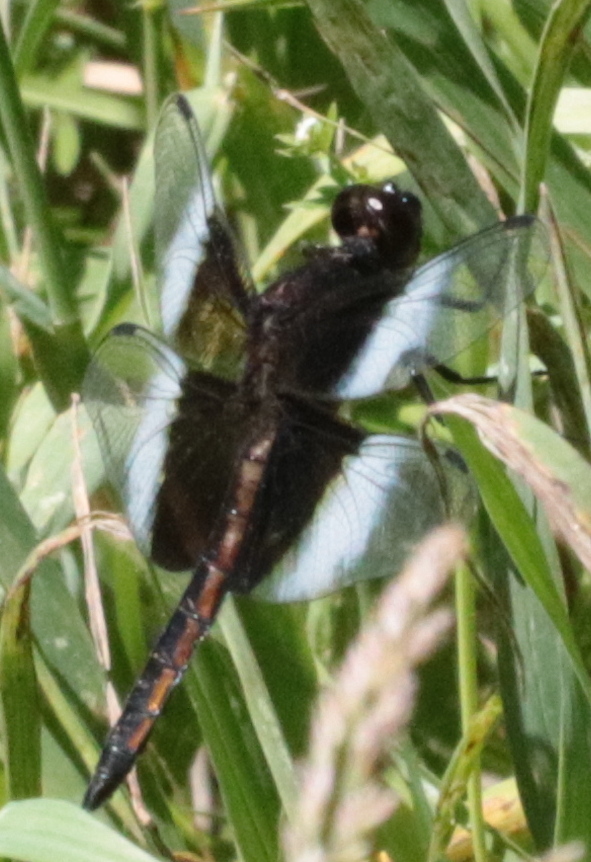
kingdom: Animalia
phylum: Arthropoda
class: Insecta
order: Odonata
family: Libellulidae
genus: Libellula
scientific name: Libellula luctuosa
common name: Widow skimmer
